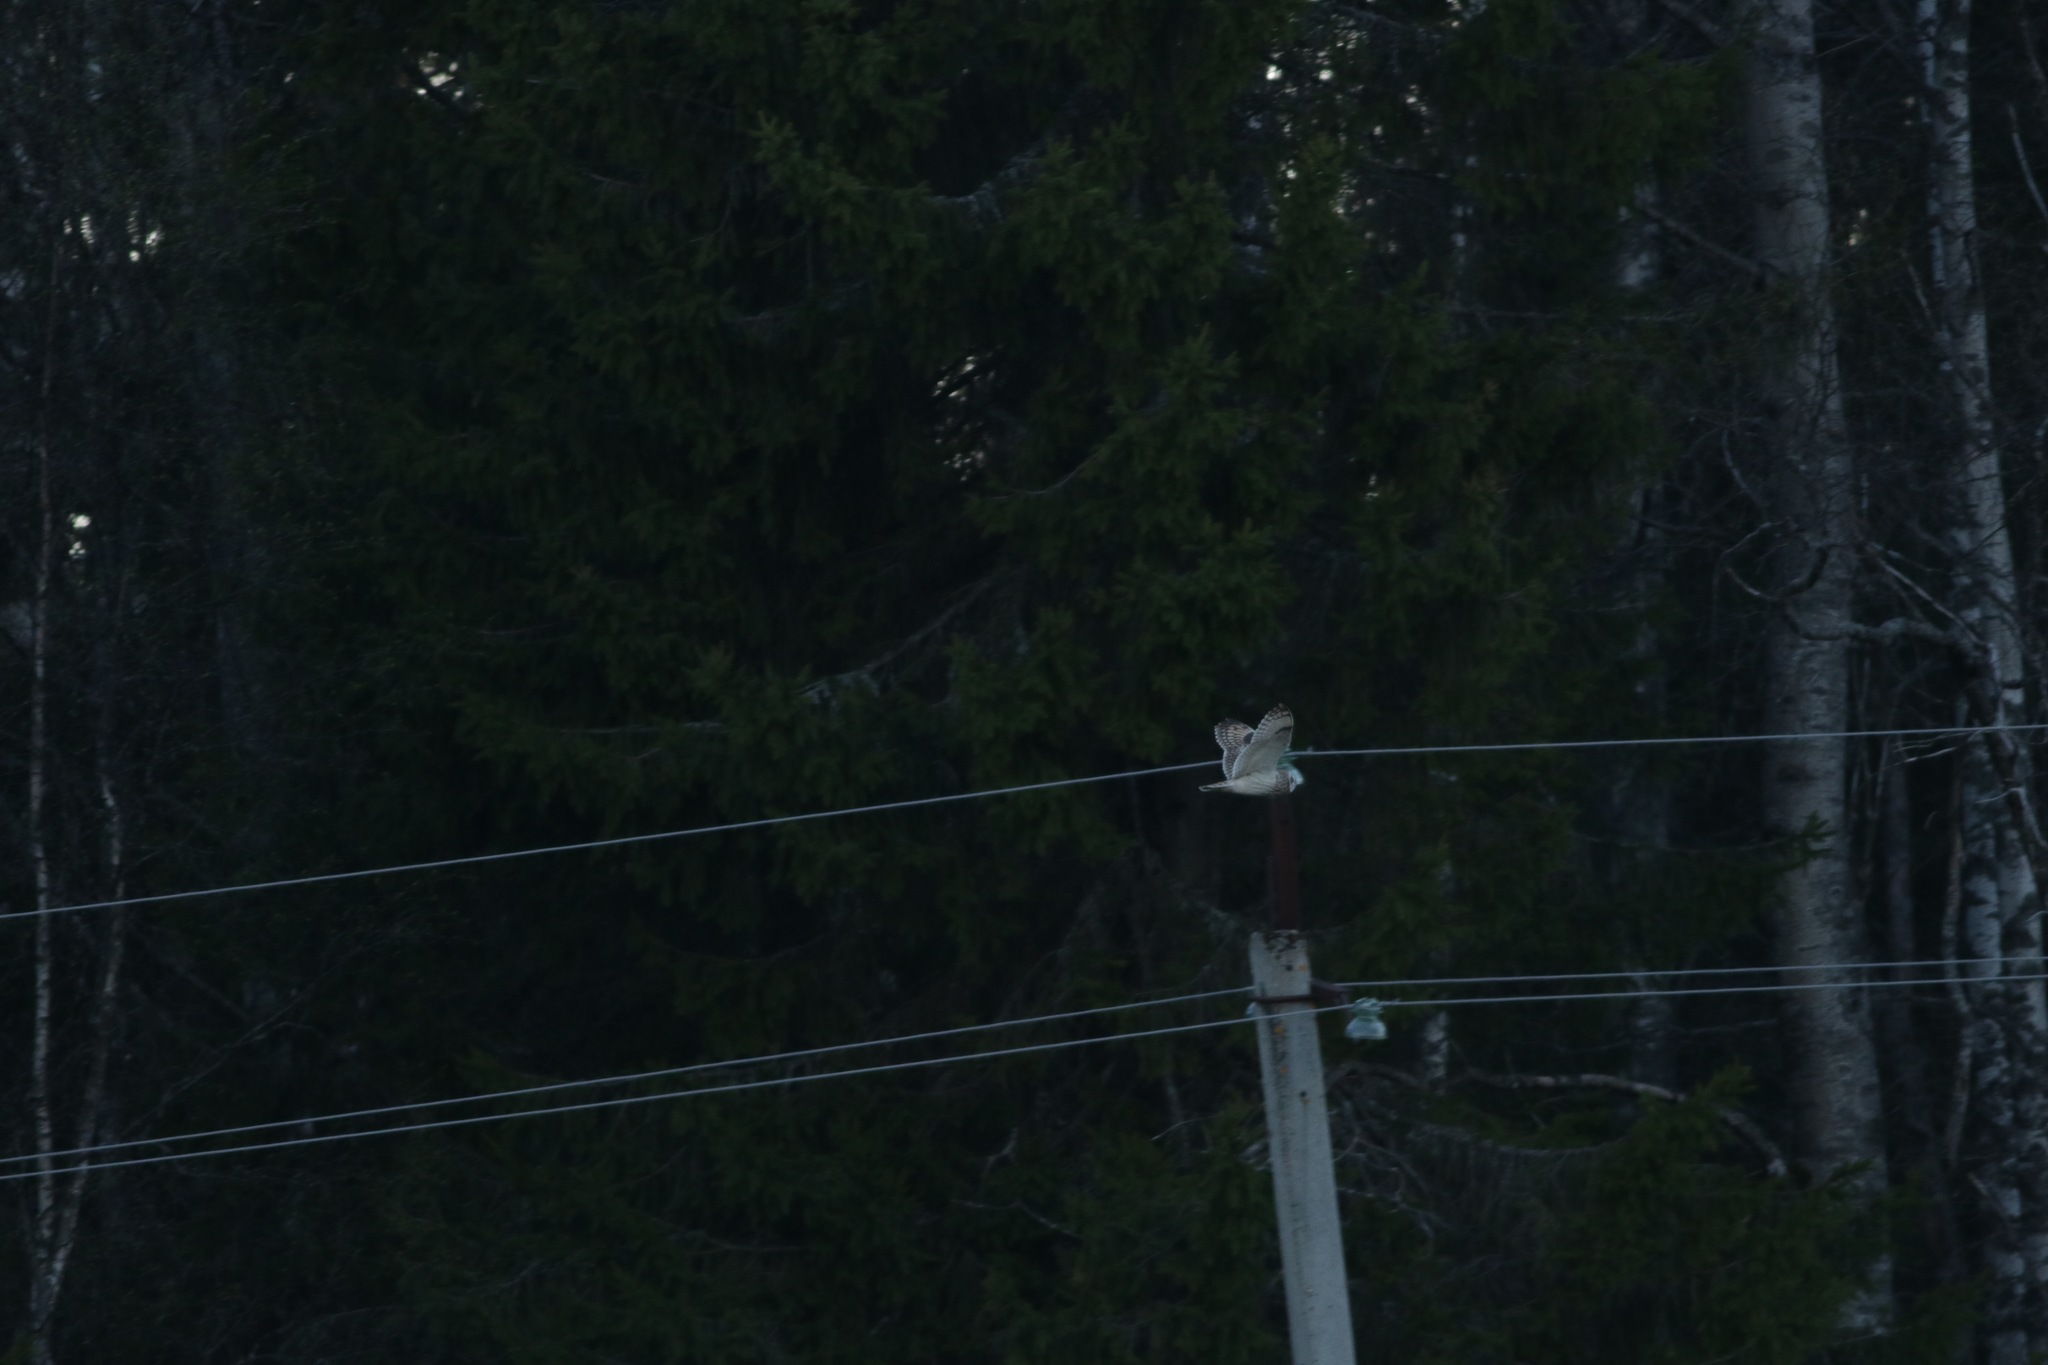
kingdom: Animalia
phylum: Chordata
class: Aves
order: Strigiformes
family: Strigidae
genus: Asio
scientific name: Asio flammeus
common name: Short-eared owl
